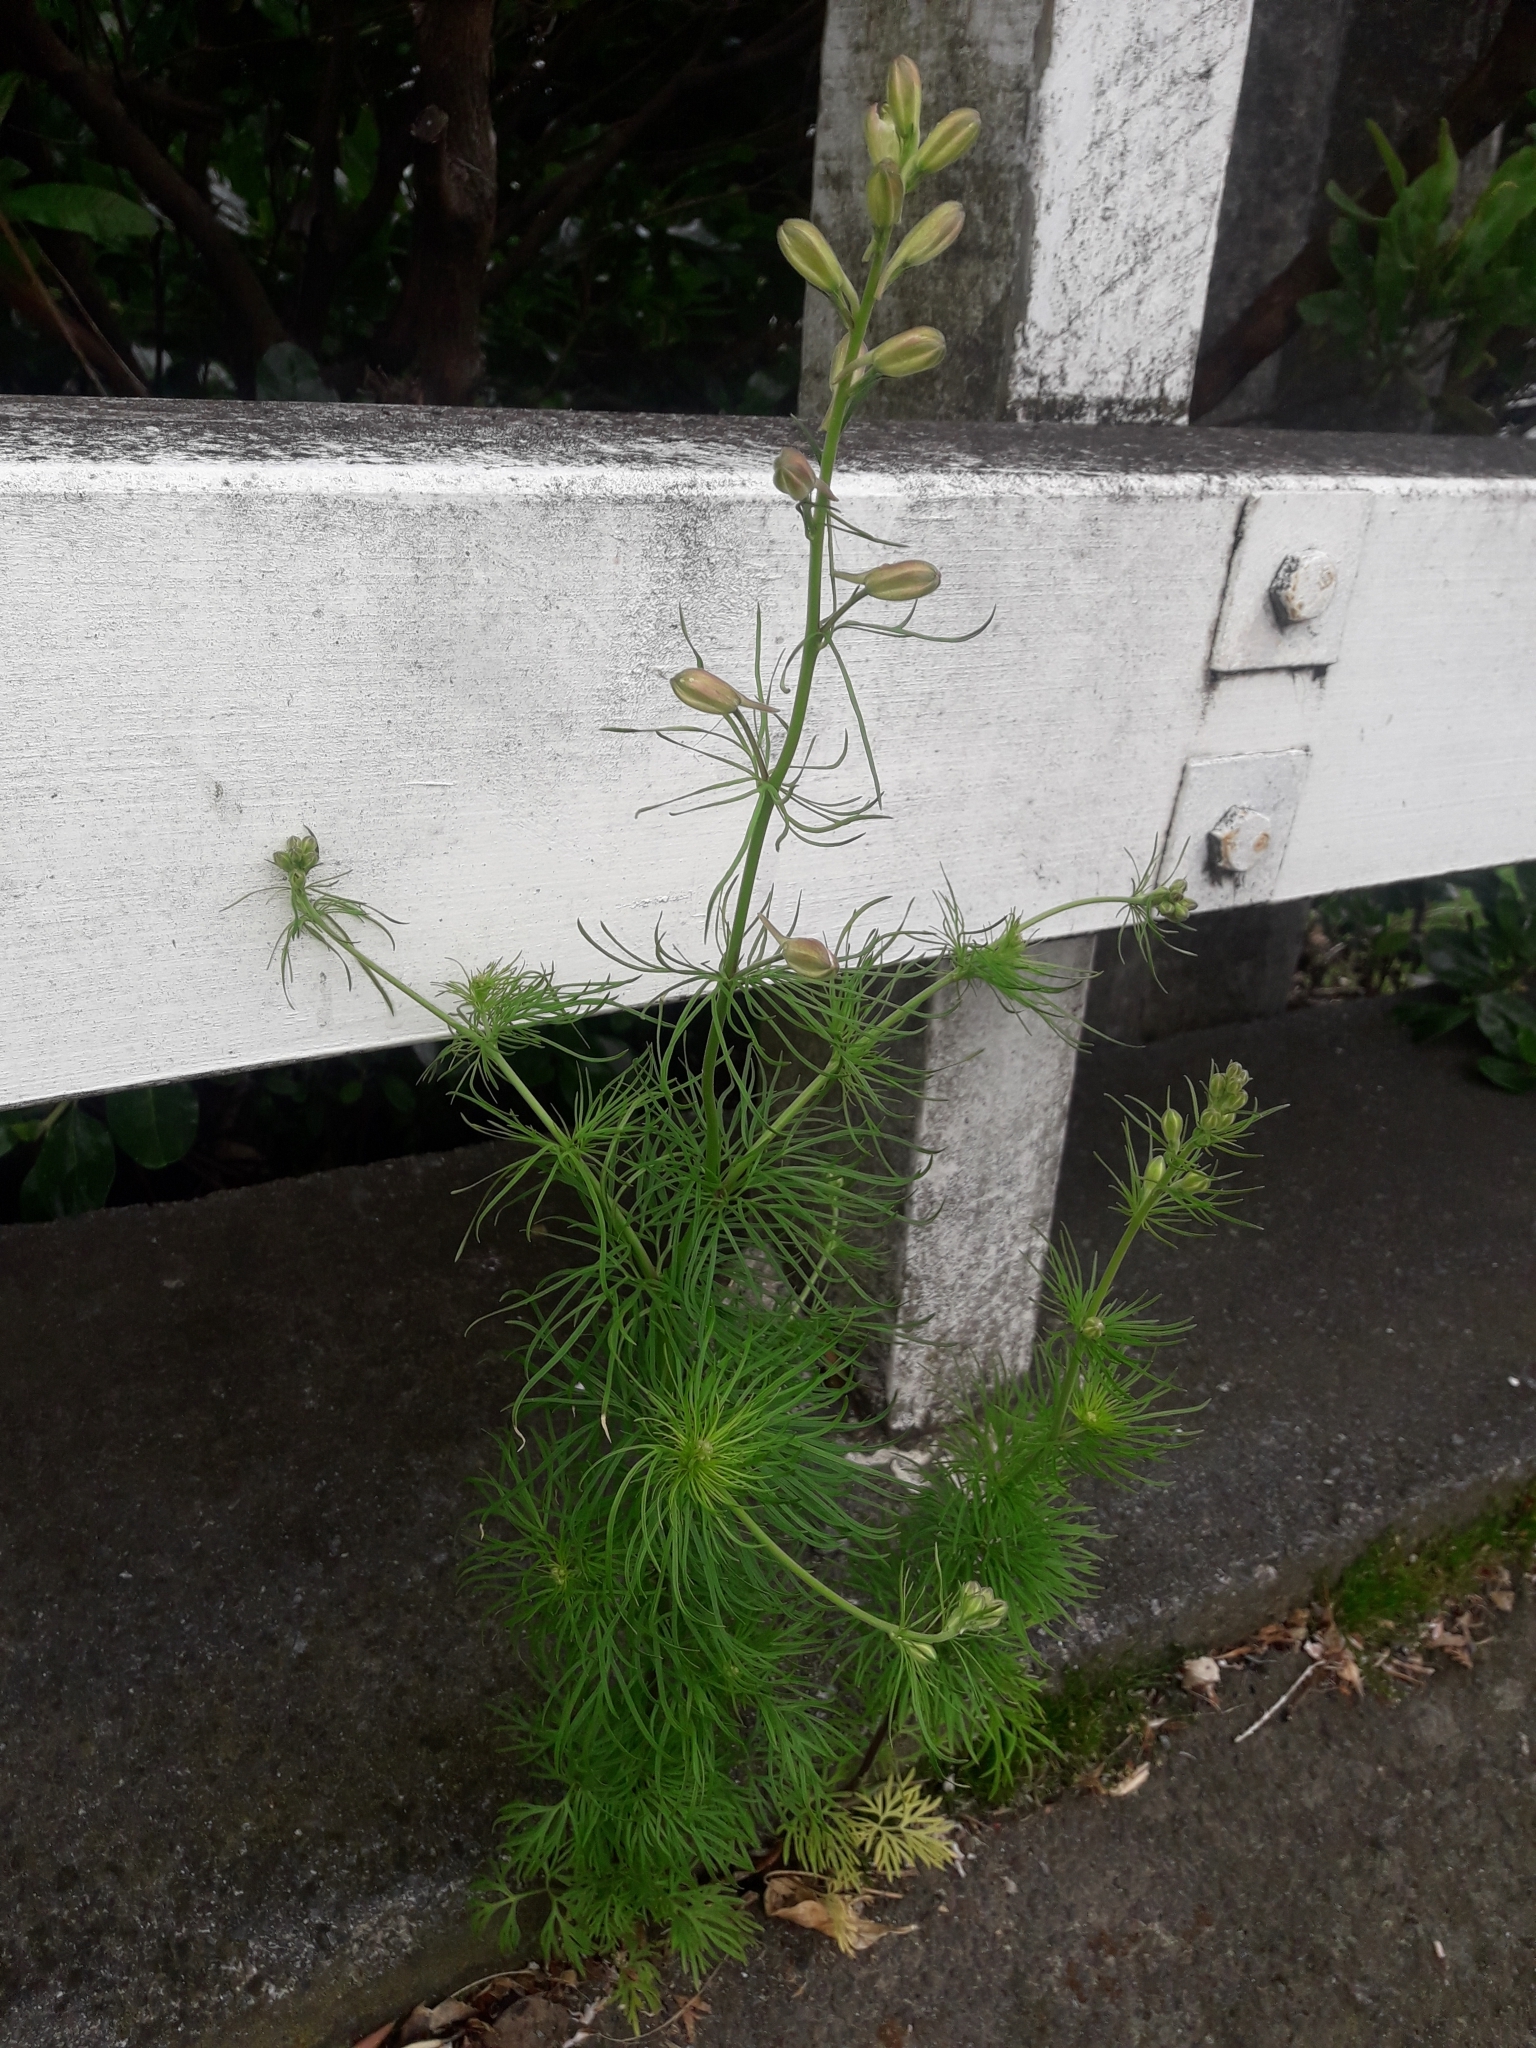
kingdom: Plantae
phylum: Tracheophyta
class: Magnoliopsida
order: Ranunculales
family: Ranunculaceae
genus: Delphinium
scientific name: Delphinium ajacis
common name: Doubtful knight's-spur
